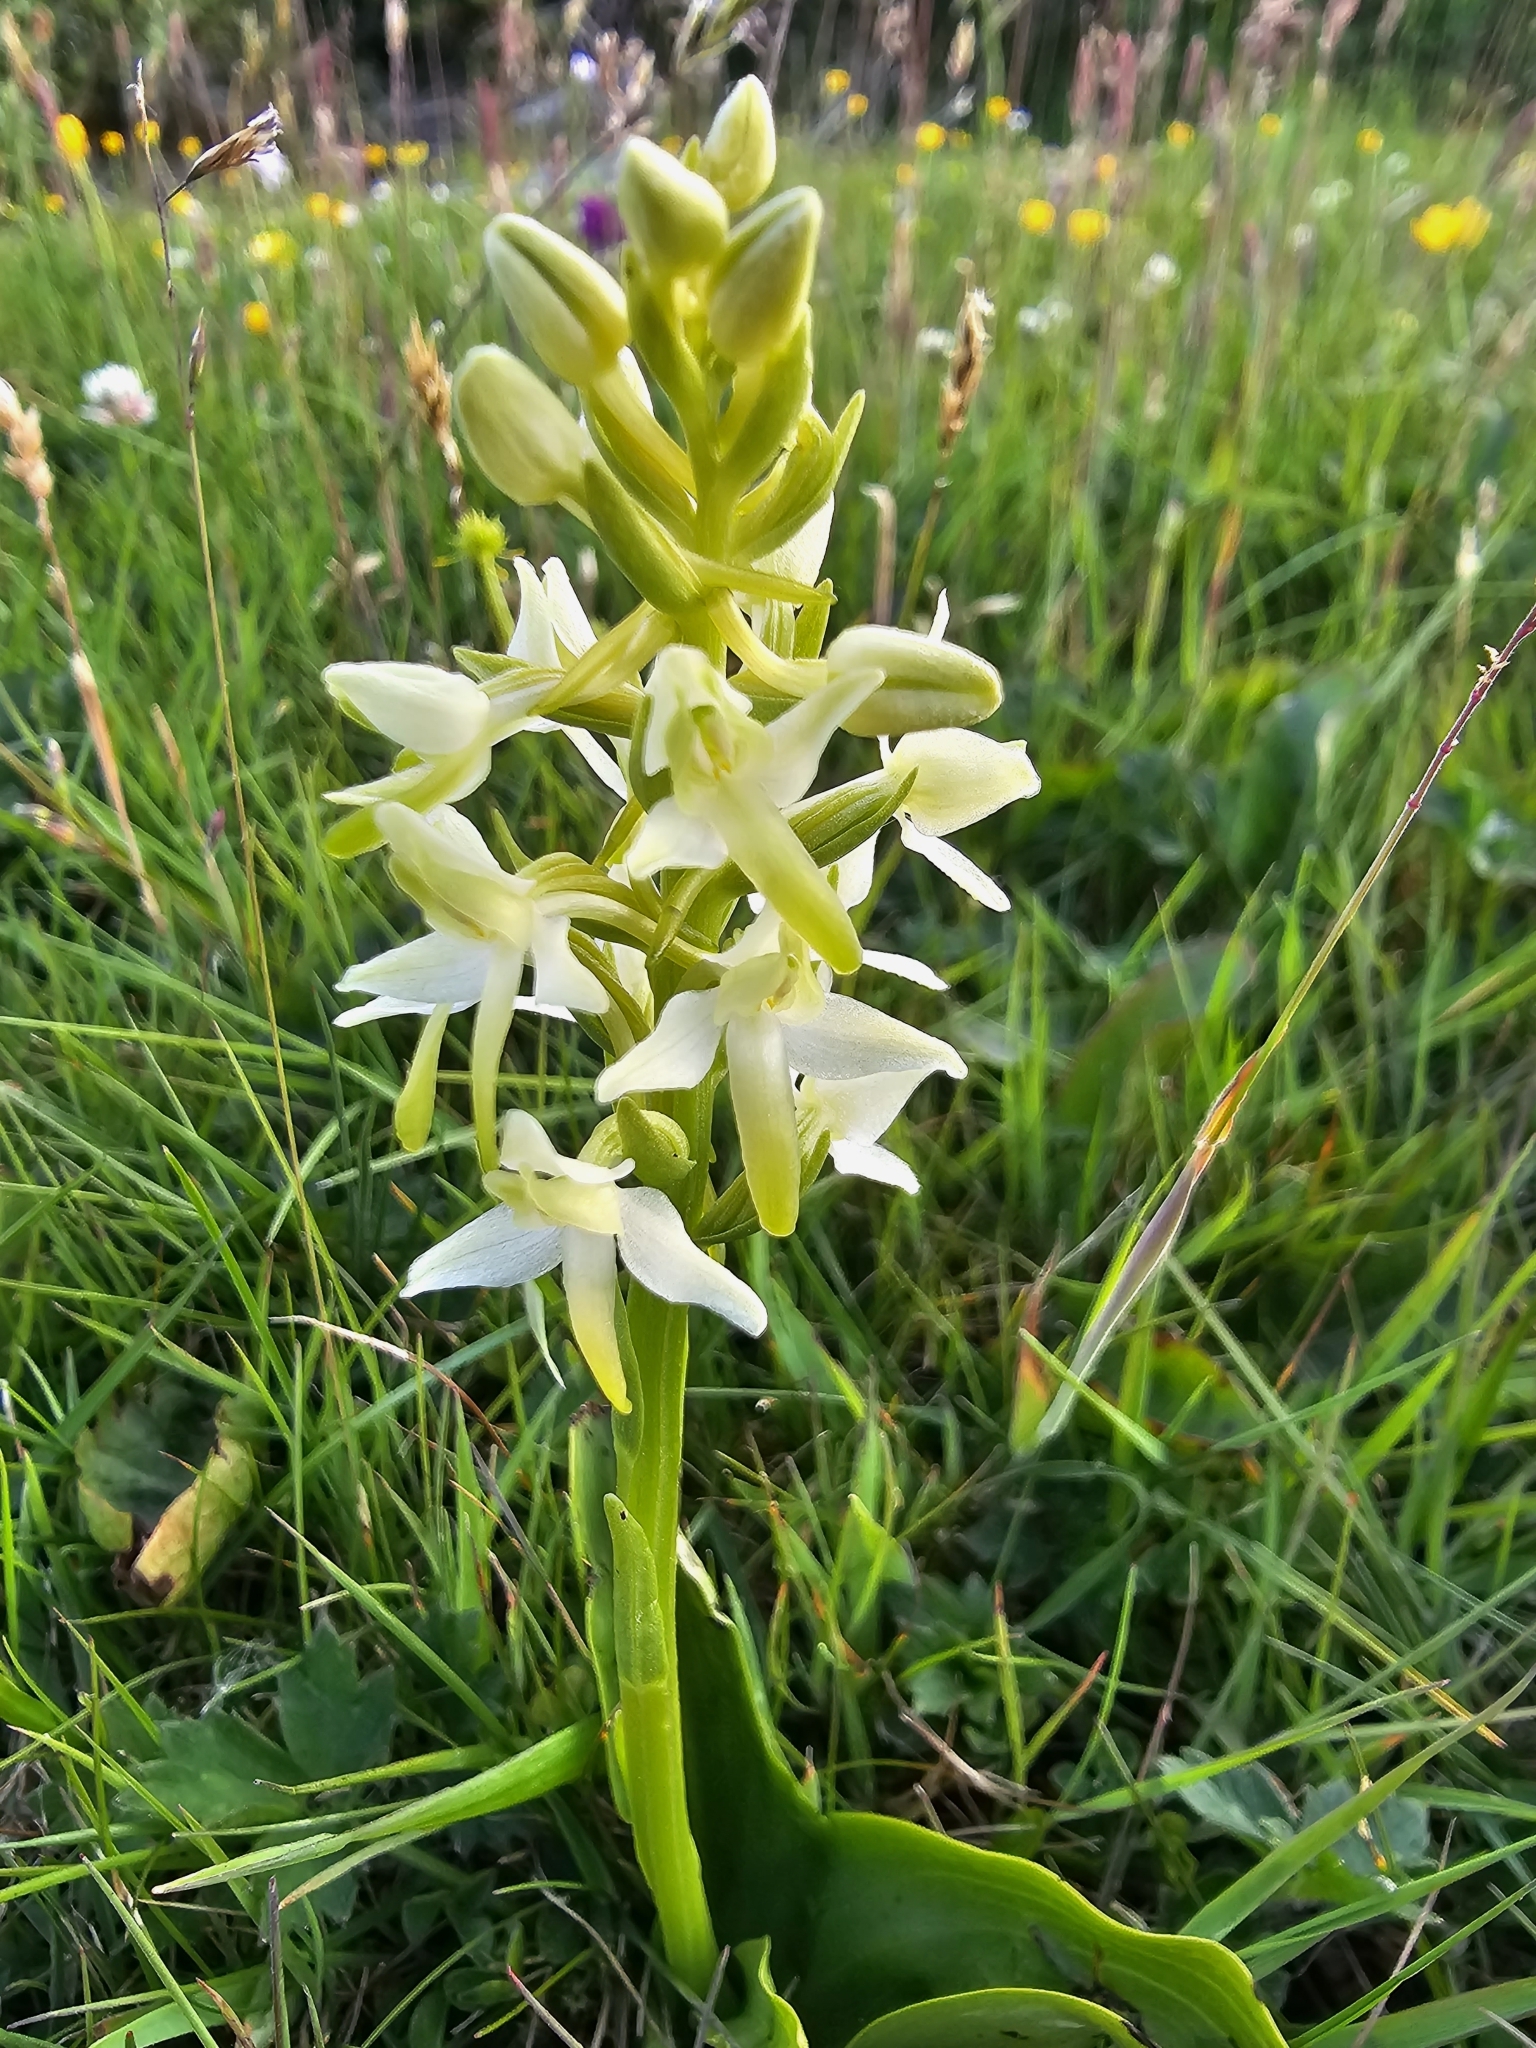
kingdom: Plantae
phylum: Tracheophyta
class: Liliopsida
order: Asparagales
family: Orchidaceae
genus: Platanthera
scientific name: Platanthera bifolia
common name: Lesser butterfly-orchid
